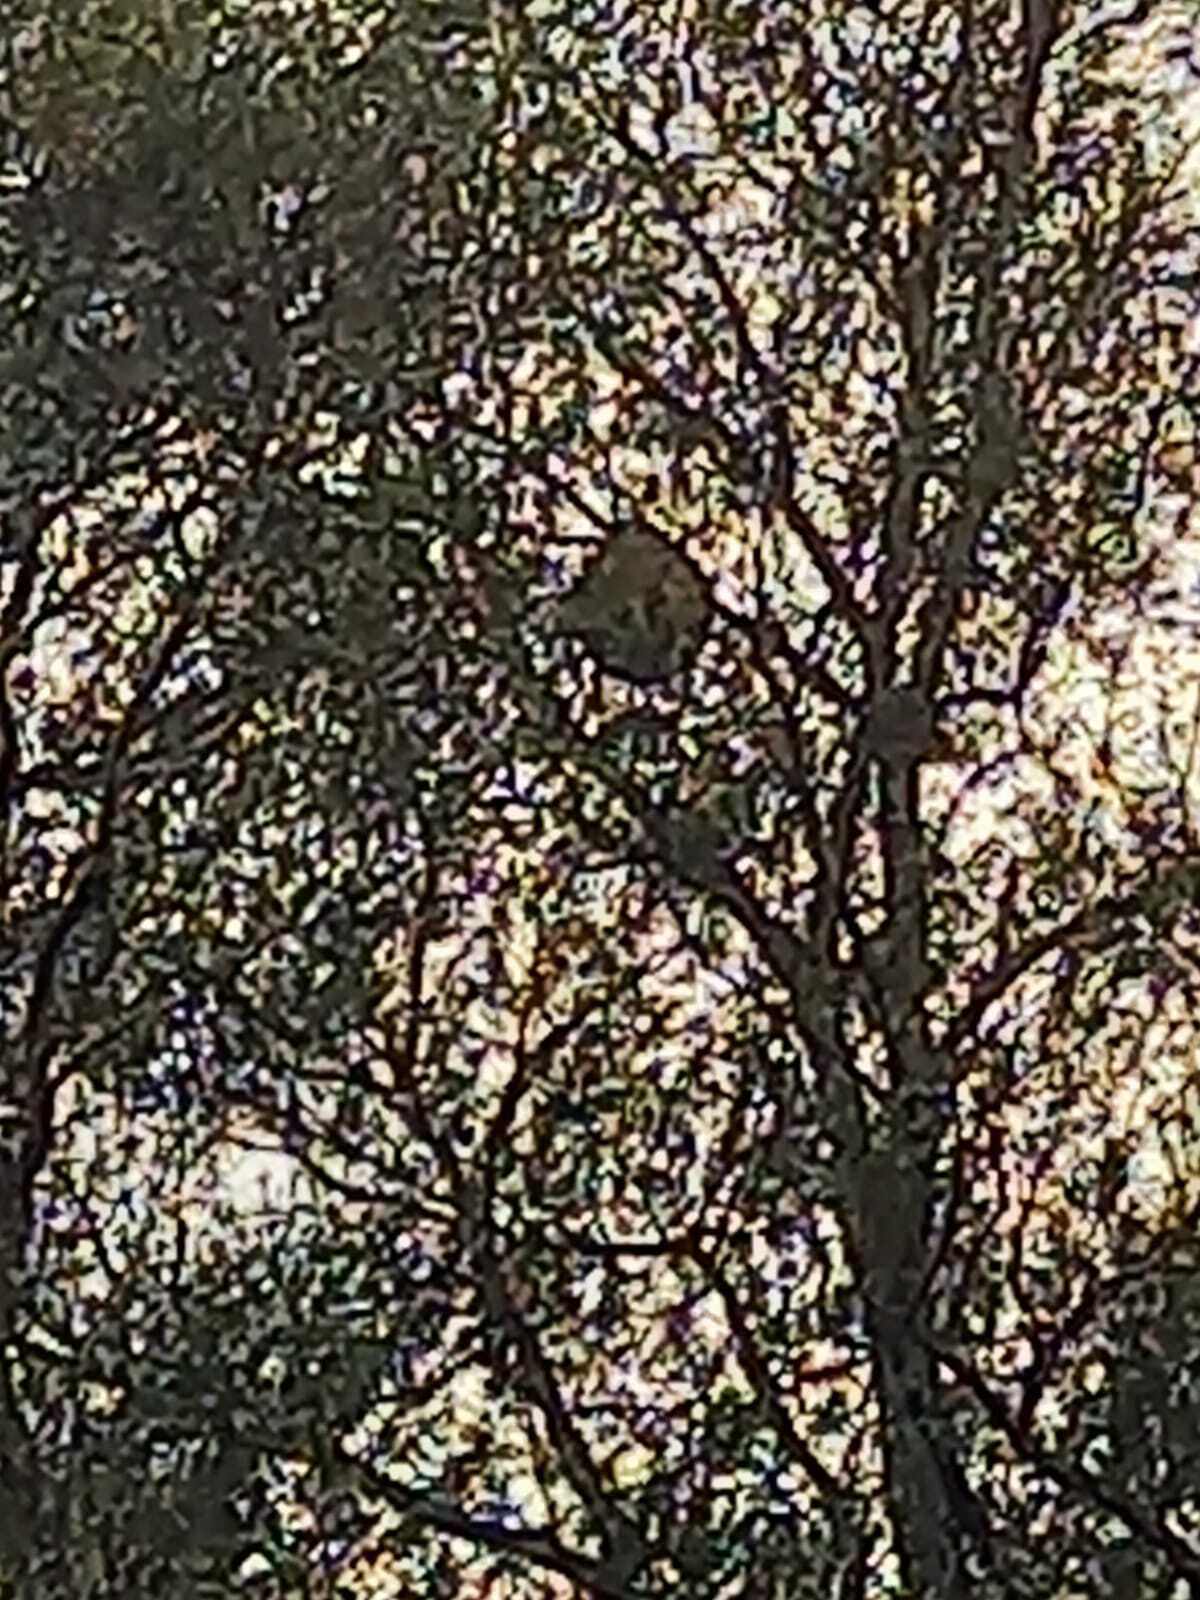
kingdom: Animalia
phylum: Arthropoda
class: Insecta
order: Hymenoptera
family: Vespidae
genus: Vespa
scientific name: Vespa velutina
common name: Asian hornet
